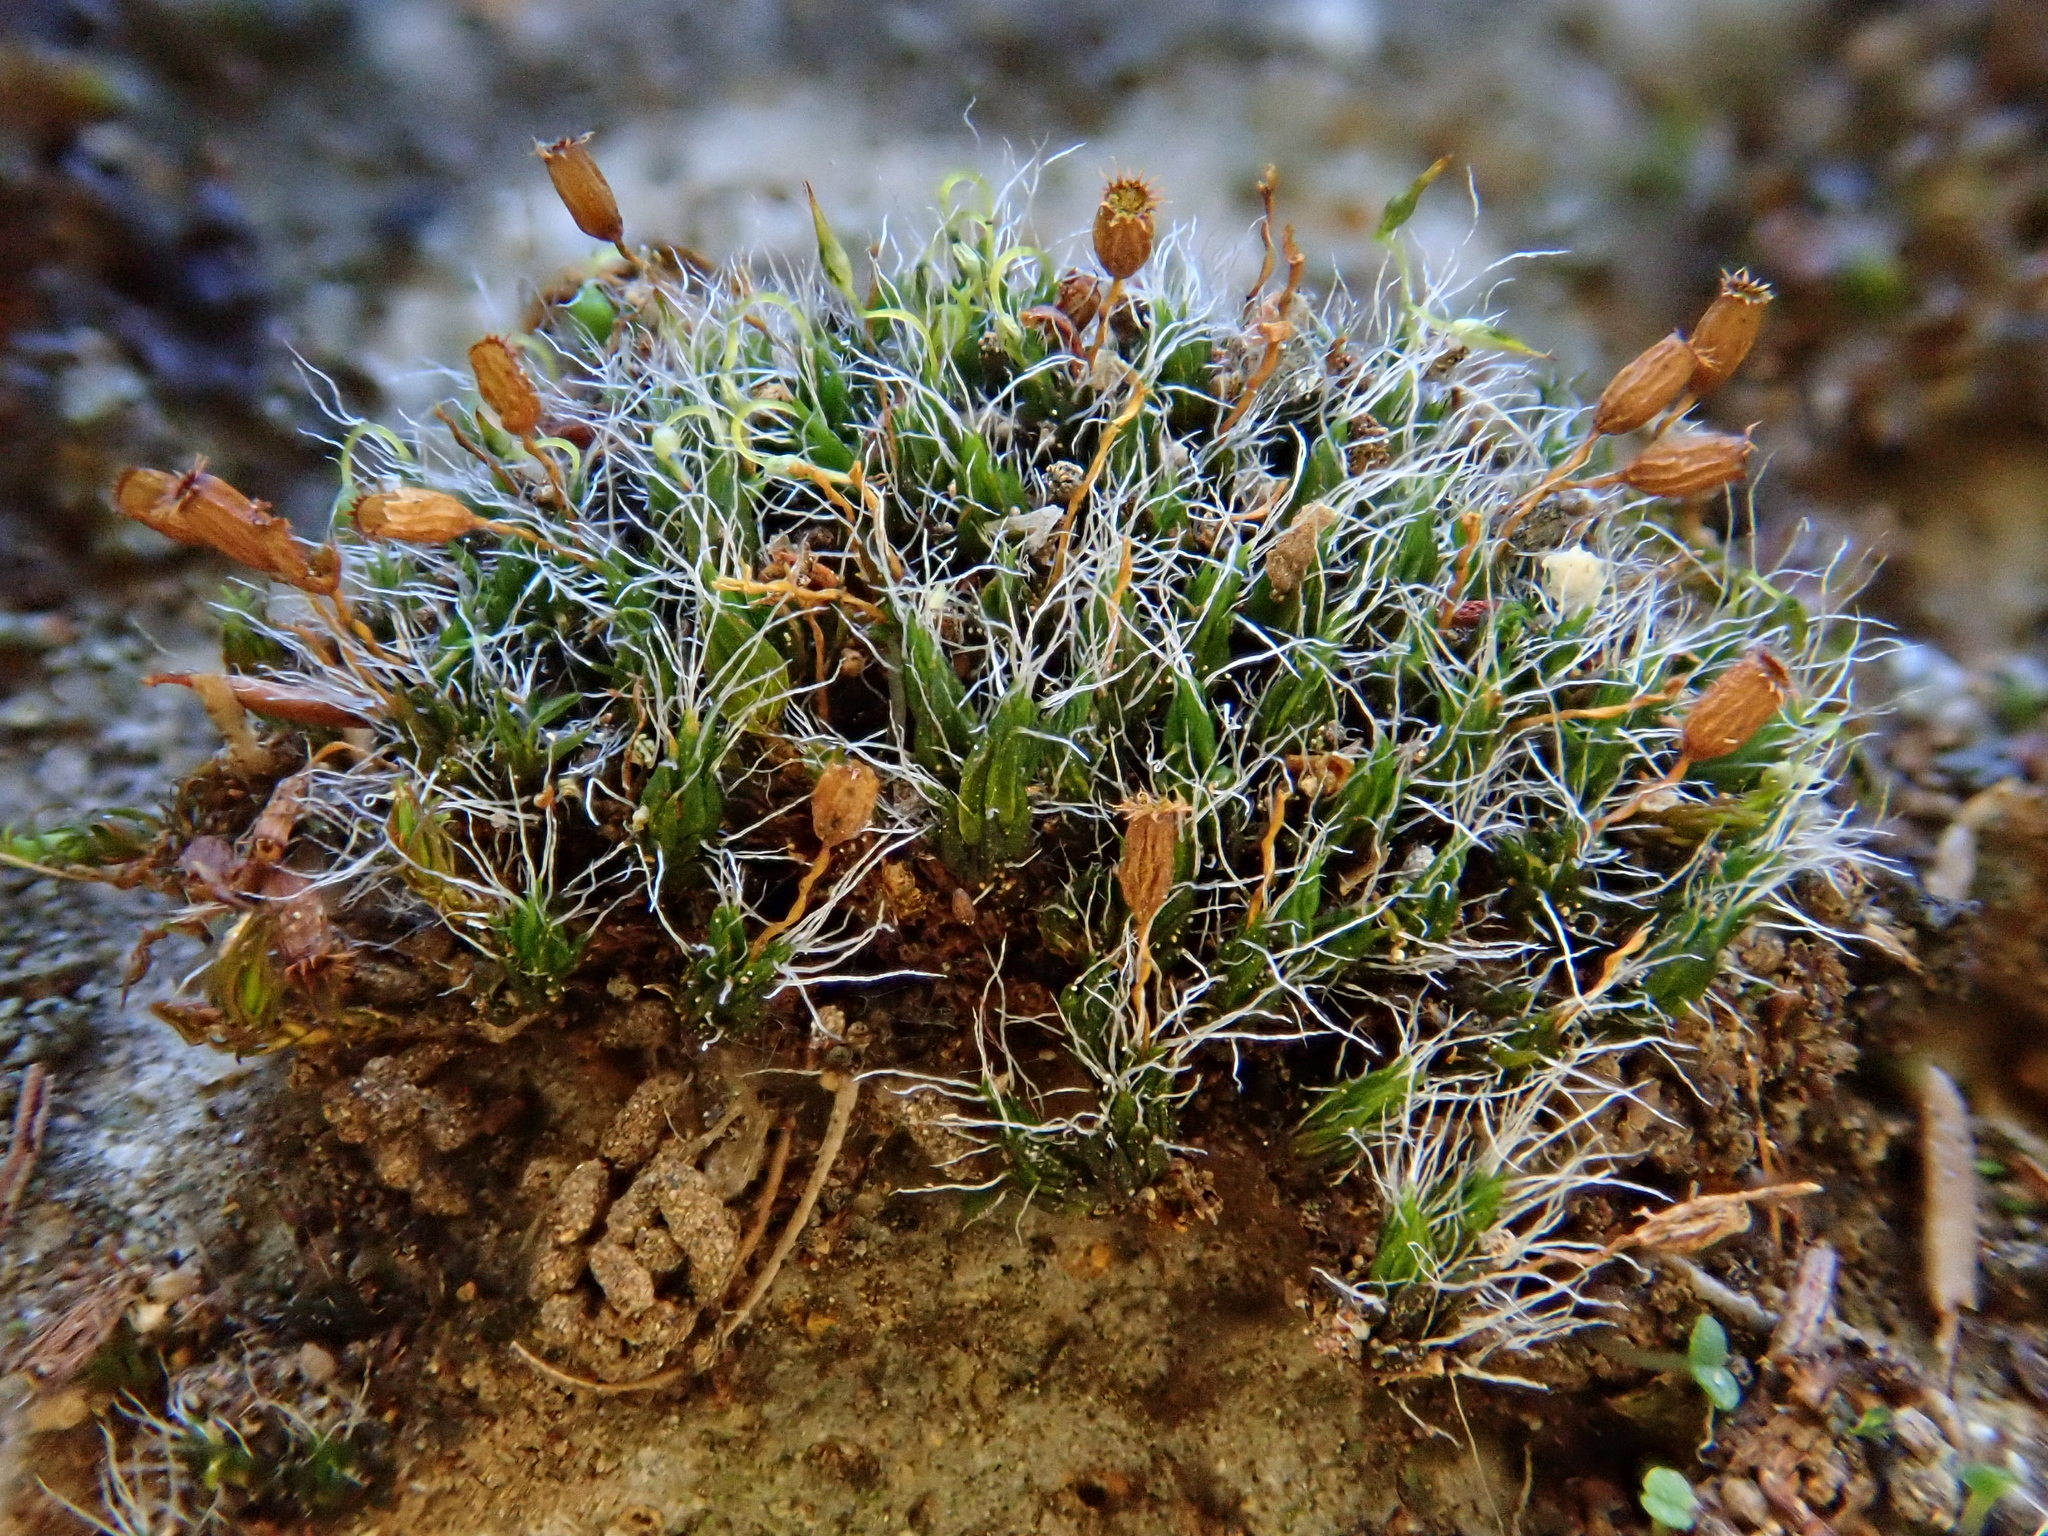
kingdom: Plantae
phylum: Bryophyta
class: Bryopsida
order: Grimmiales
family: Grimmiaceae
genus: Grimmia
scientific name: Grimmia pulvinata
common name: Grey-cushioned grimmia
